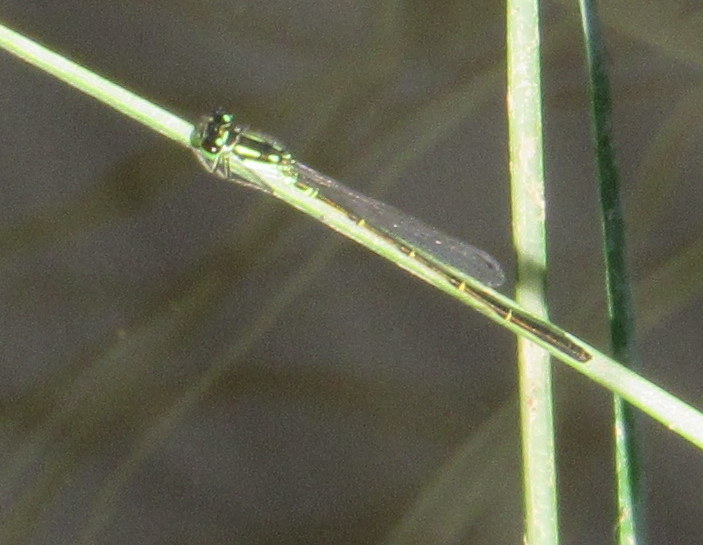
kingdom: Animalia
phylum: Arthropoda
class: Insecta
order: Odonata
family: Coenagrionidae
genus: Ischnura
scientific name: Ischnura posita
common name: Fragile forktail
